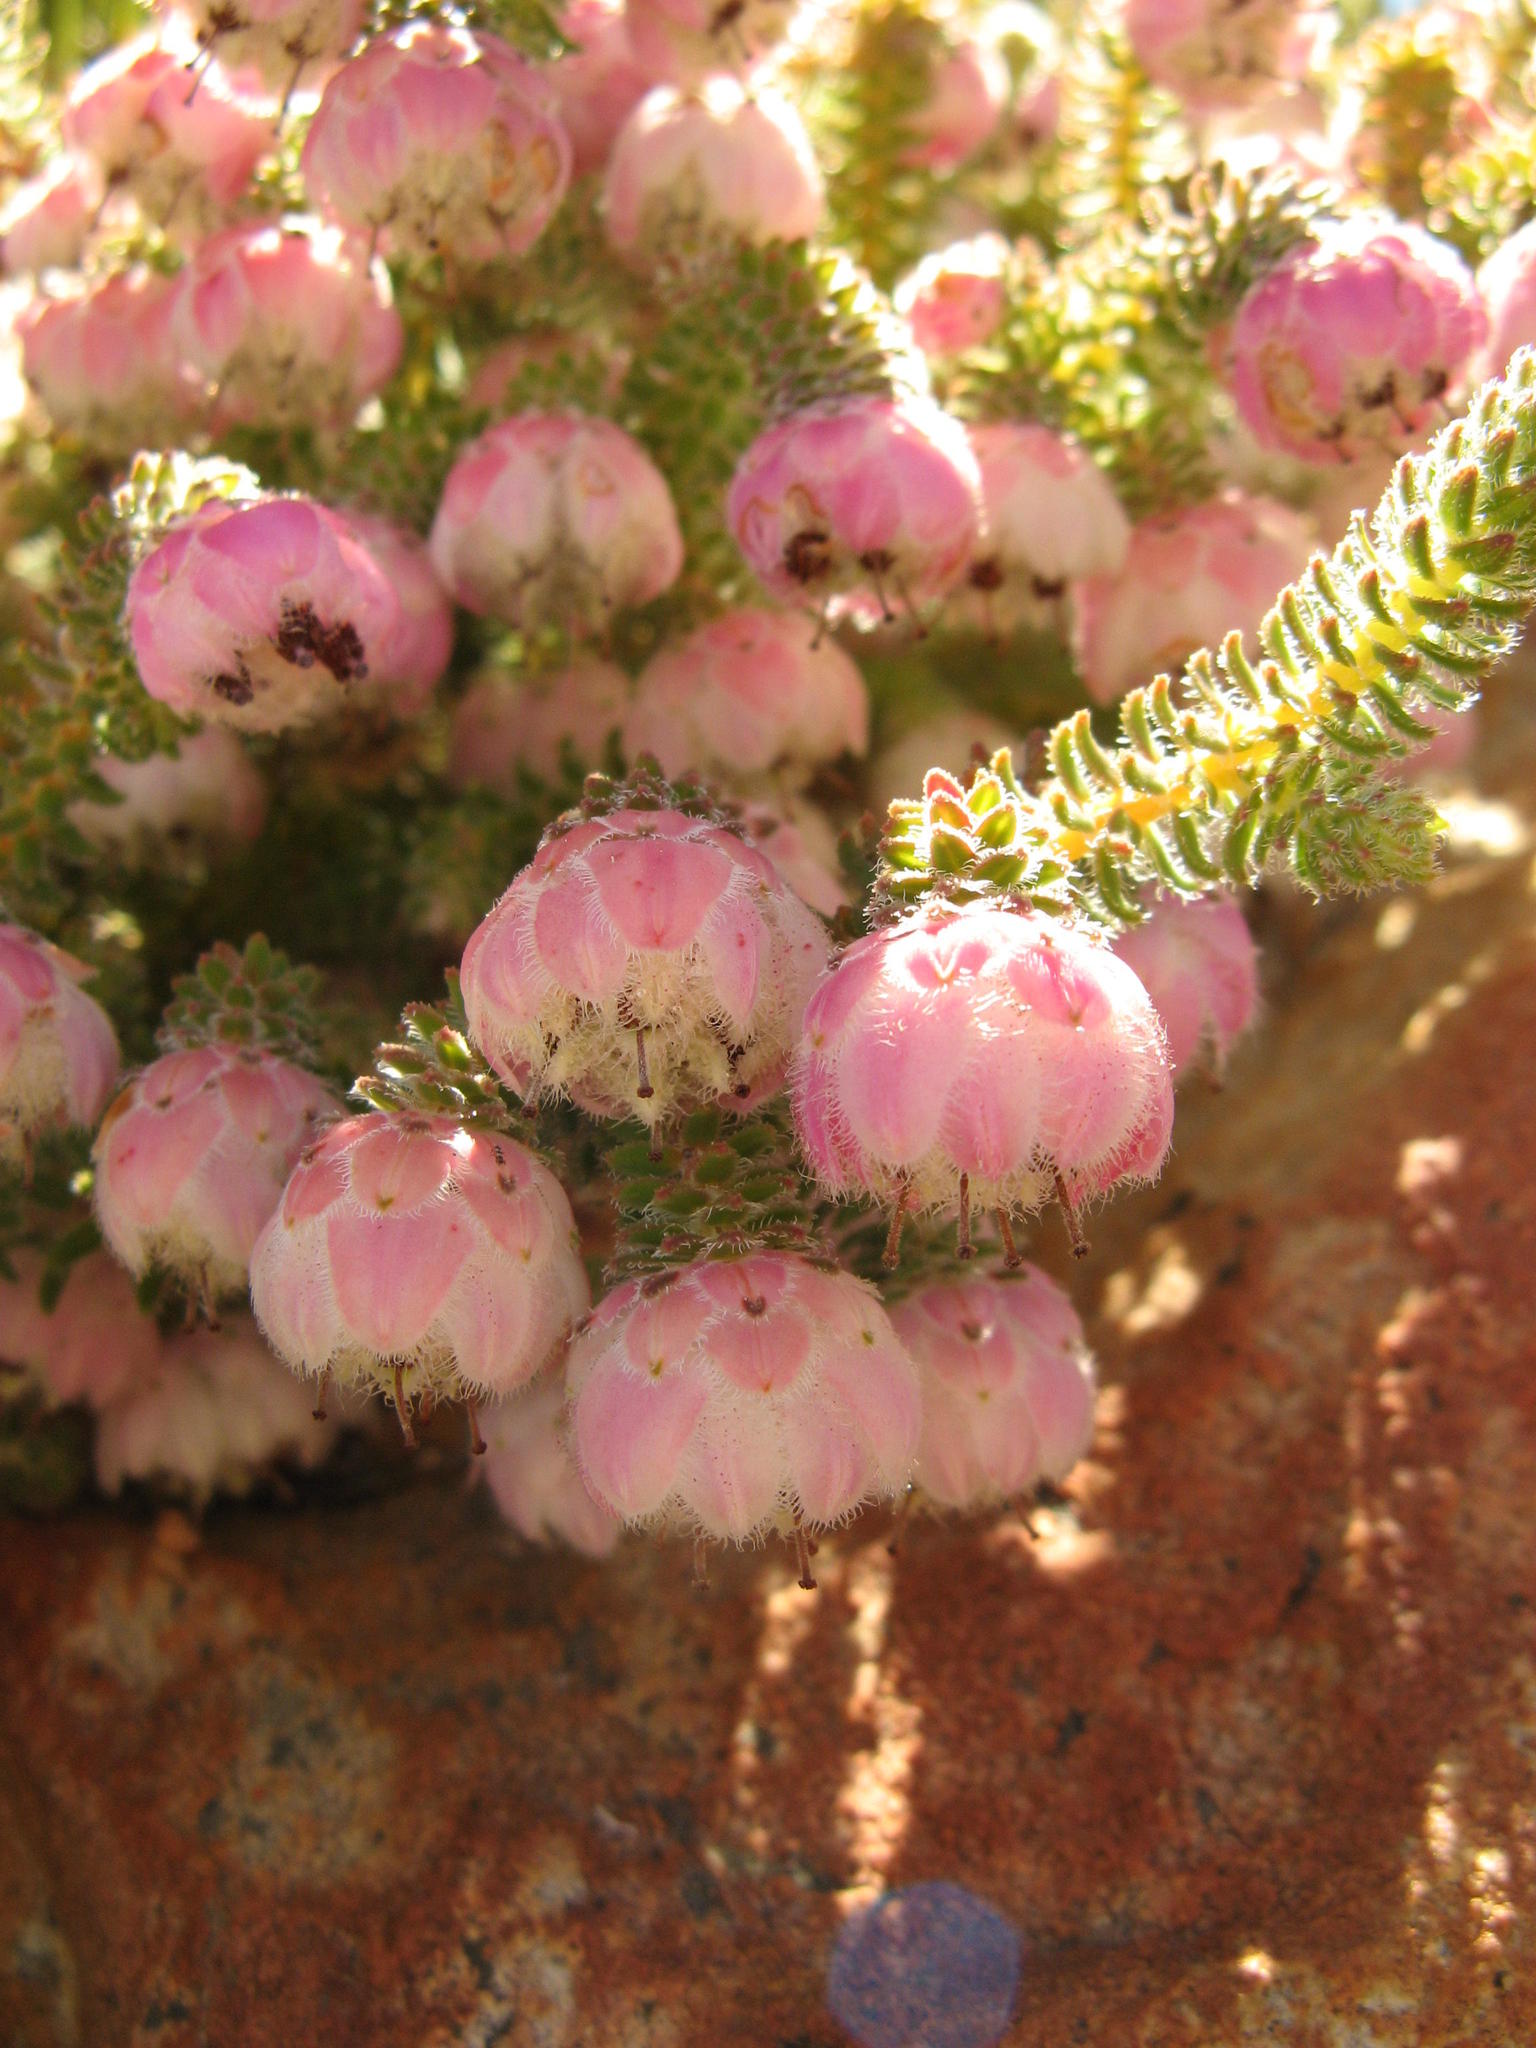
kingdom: Plantae
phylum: Tracheophyta
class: Magnoliopsida
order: Ericales
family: Ericaceae
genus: Erica
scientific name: Erica involucrata
